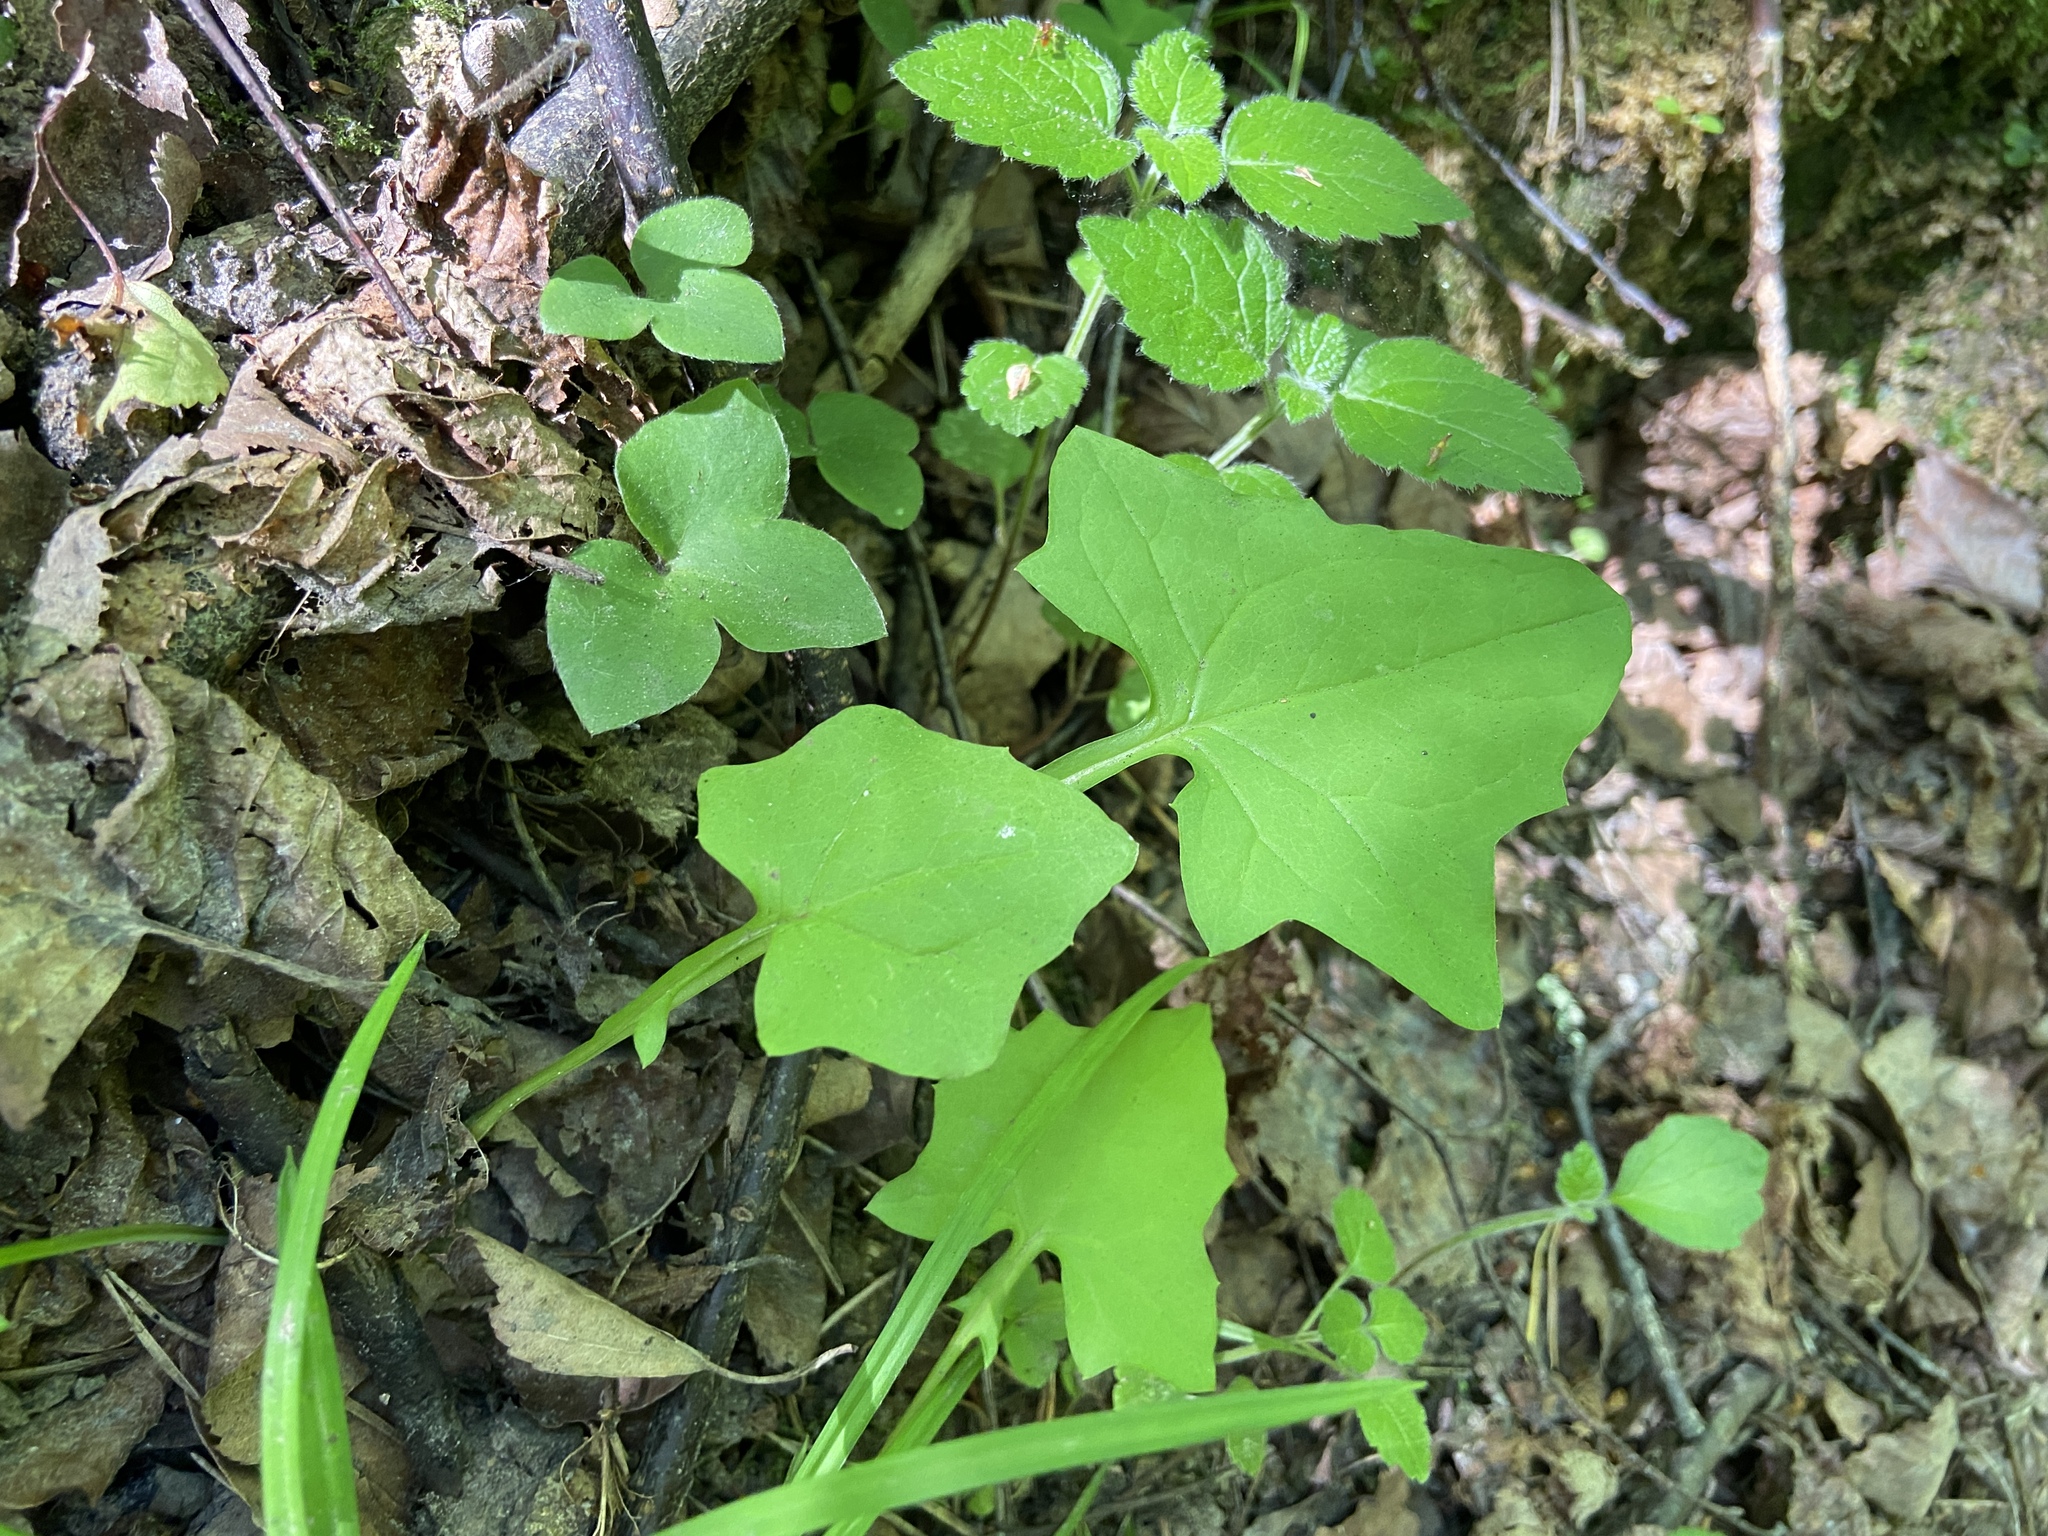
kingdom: Plantae
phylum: Tracheophyta
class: Magnoliopsida
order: Asterales
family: Asteraceae
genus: Mycelis
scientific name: Mycelis muralis
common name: Wall lettuce
